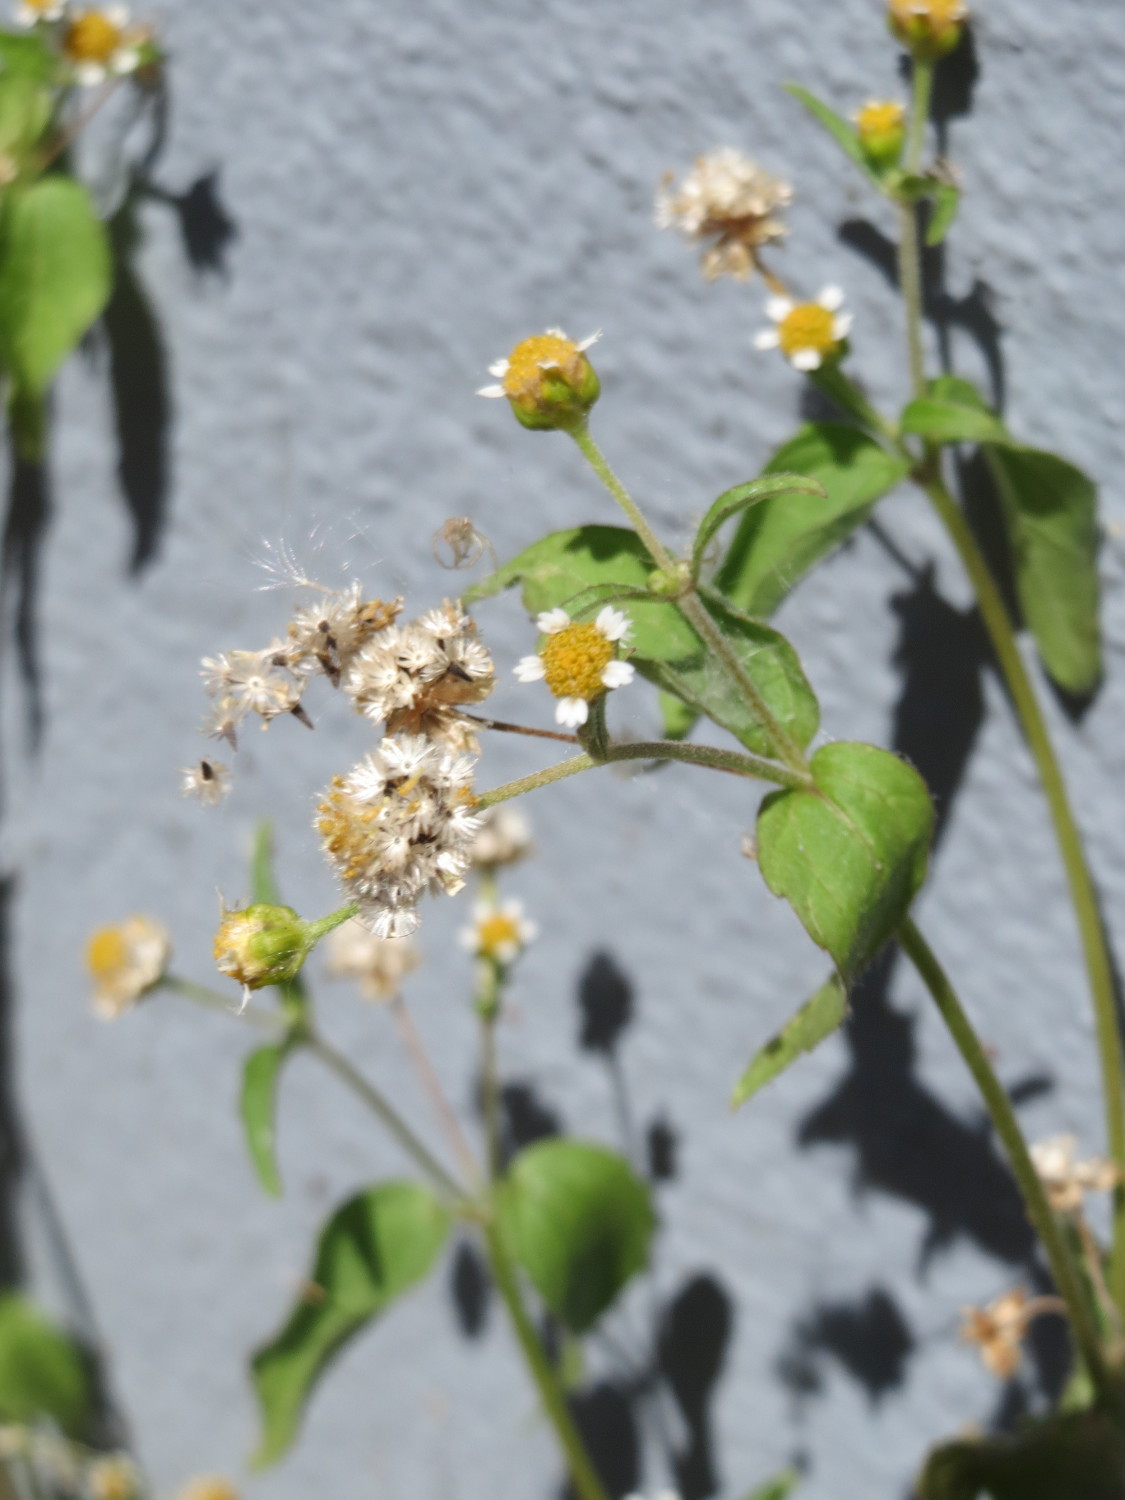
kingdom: Plantae
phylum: Tracheophyta
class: Magnoliopsida
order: Asterales
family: Asteraceae
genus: Galinsoga
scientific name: Galinsoga parviflora
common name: Gallant soldier
